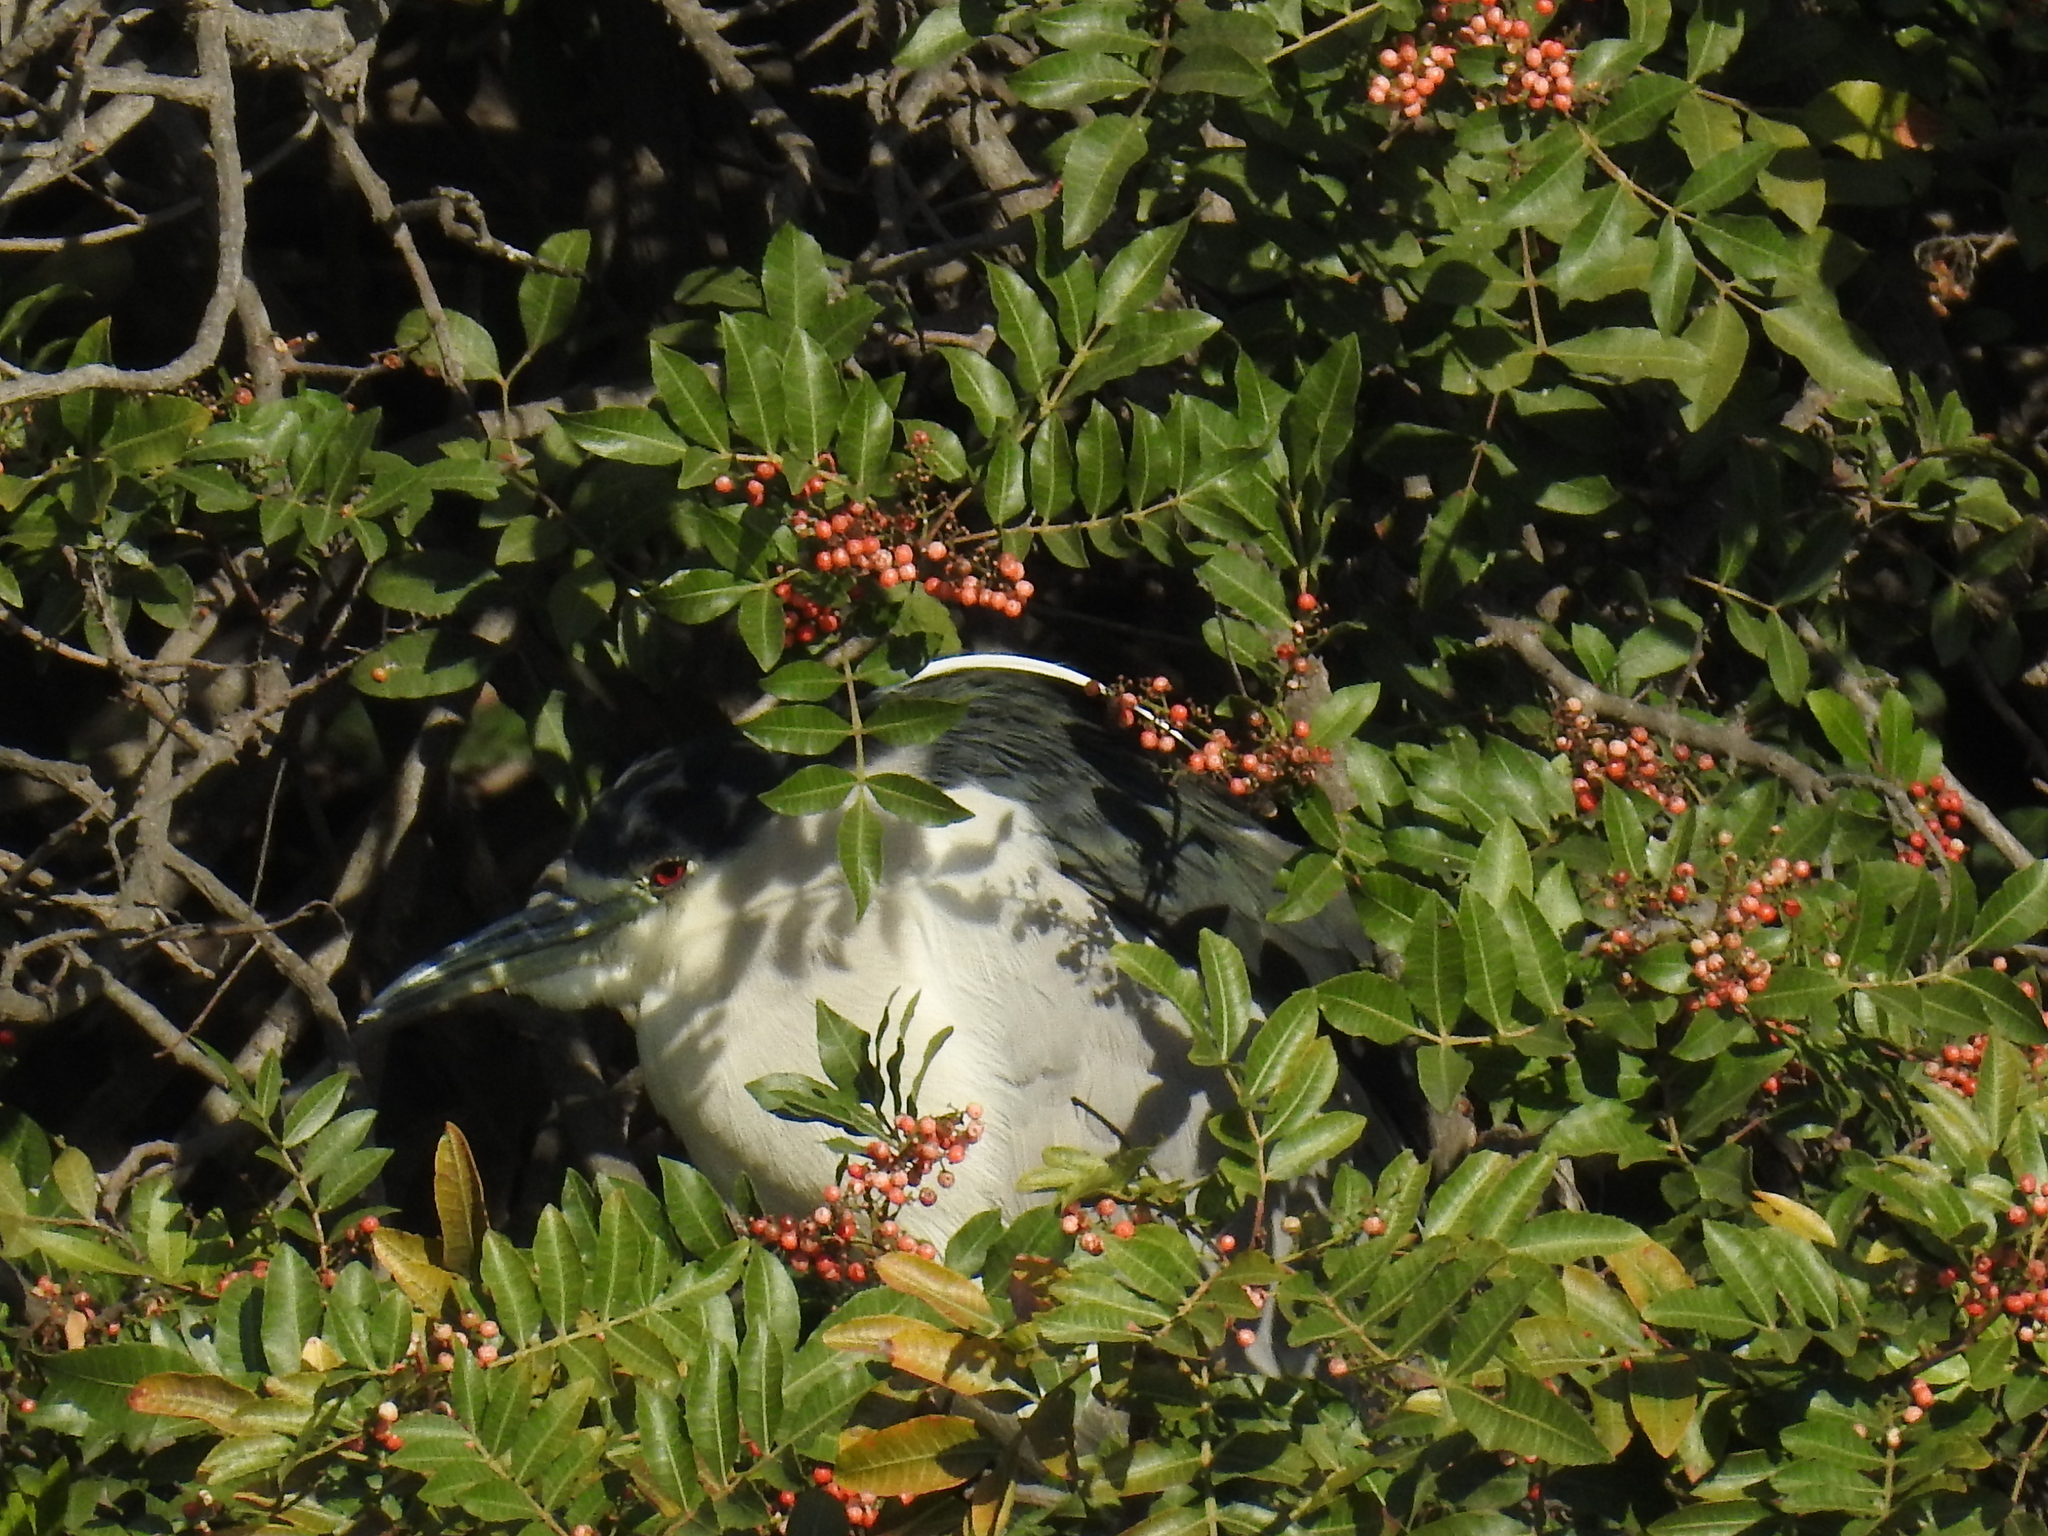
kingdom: Animalia
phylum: Chordata
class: Aves
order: Pelecaniformes
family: Ardeidae
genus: Nycticorax
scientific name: Nycticorax nycticorax
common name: Black-crowned night heron
